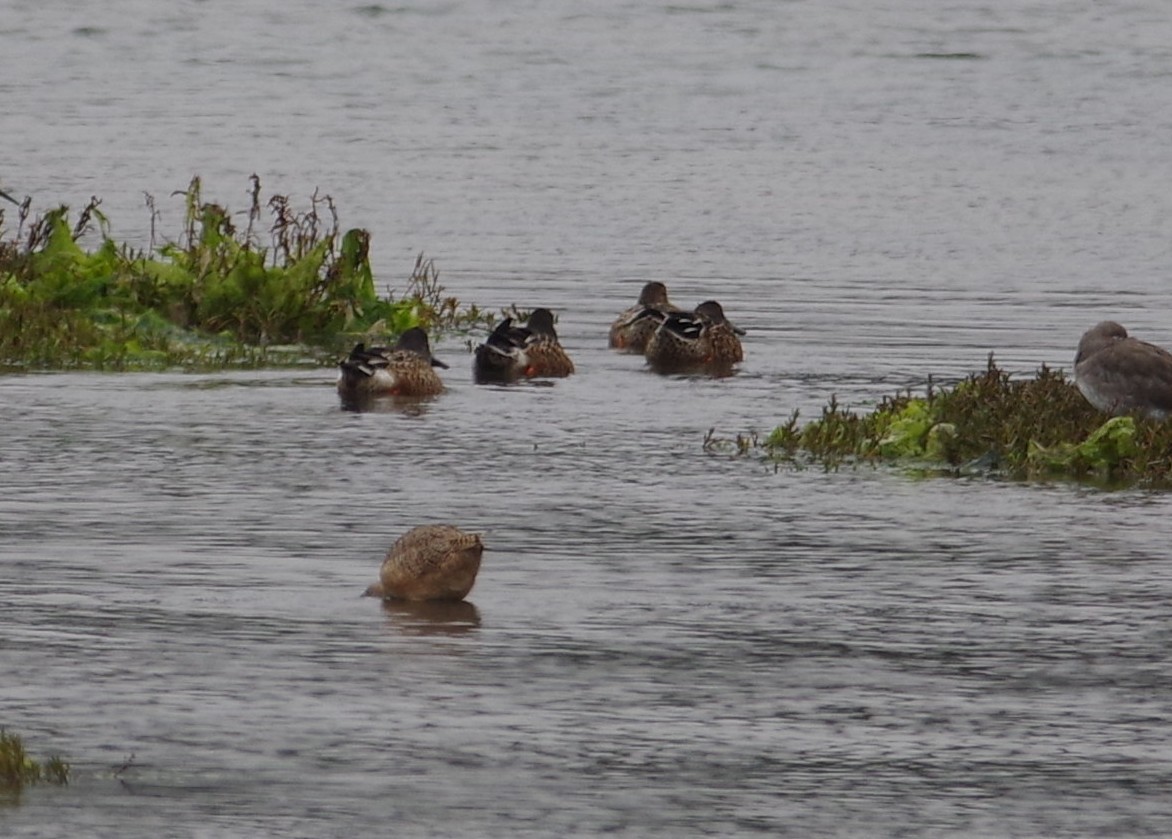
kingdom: Animalia
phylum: Chordata
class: Aves
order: Anseriformes
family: Anatidae
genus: Spatula
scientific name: Spatula clypeata
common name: Northern shoveler
